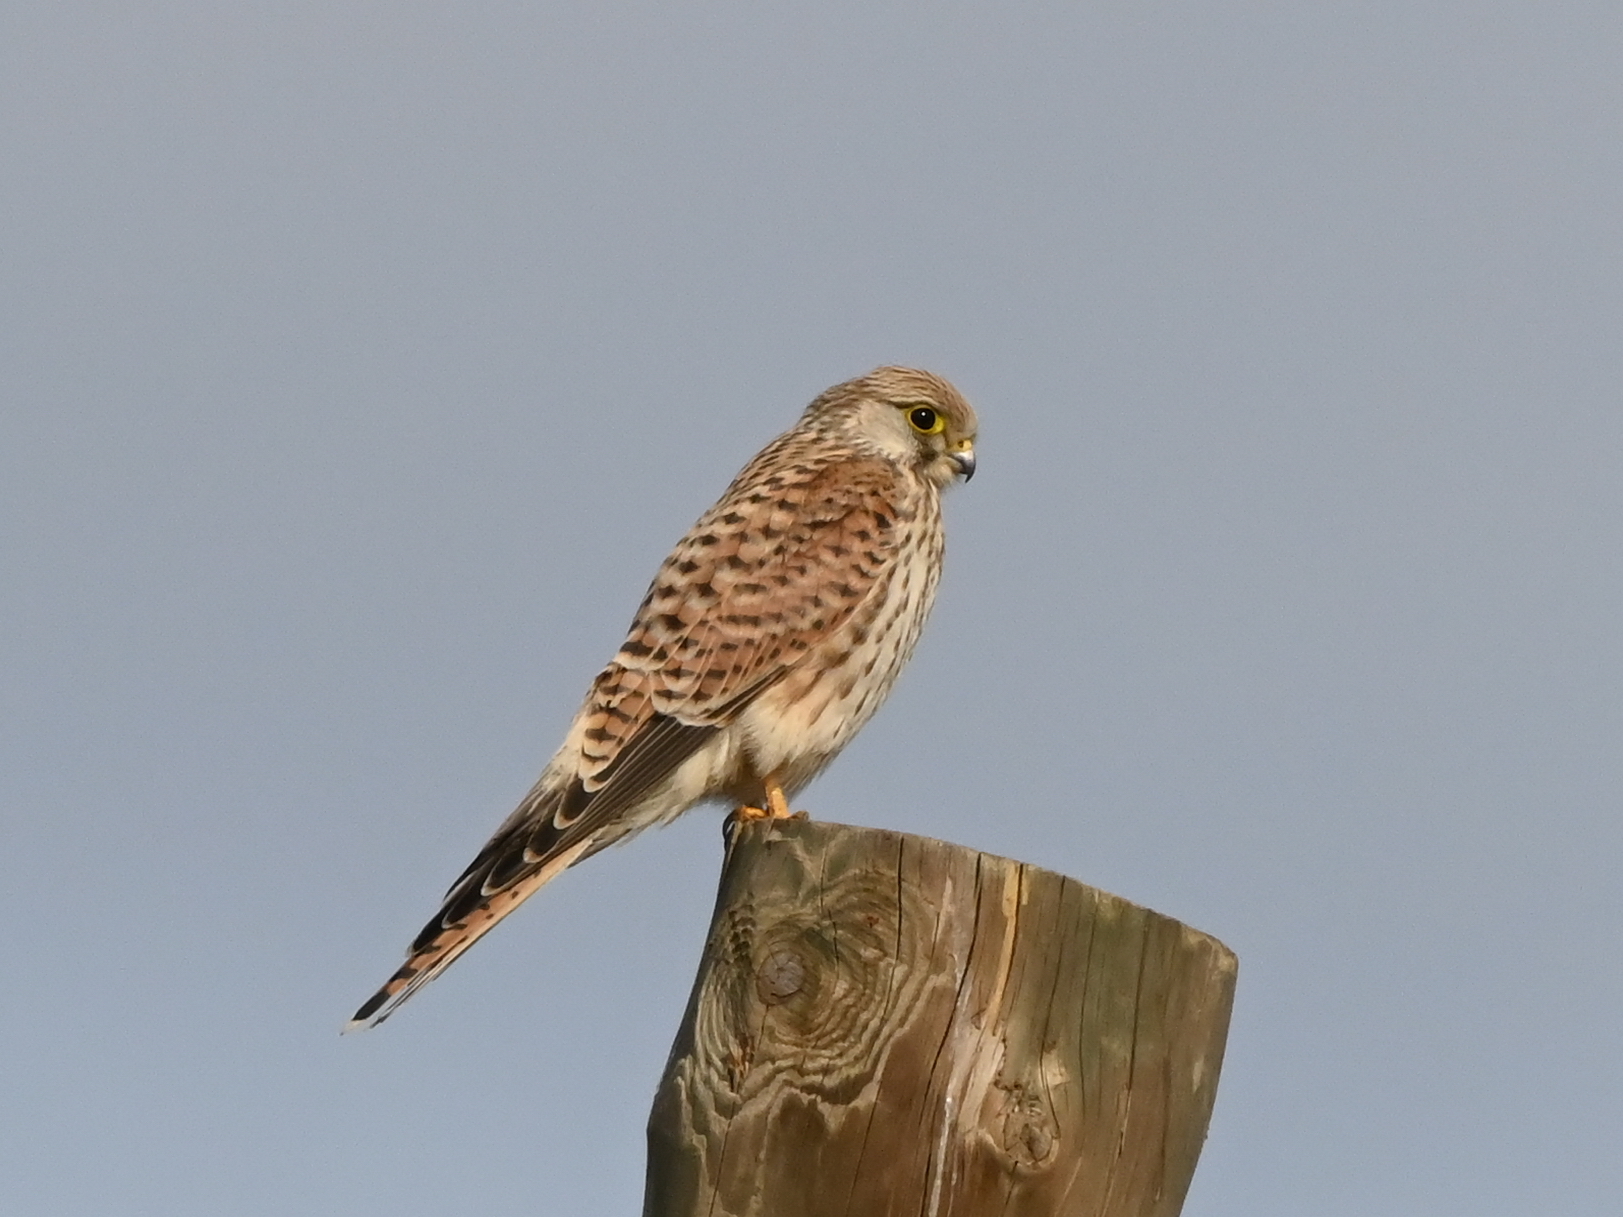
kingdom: Animalia
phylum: Chordata
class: Aves
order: Falconiformes
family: Falconidae
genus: Falco
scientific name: Falco tinnunculus
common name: Common kestrel
